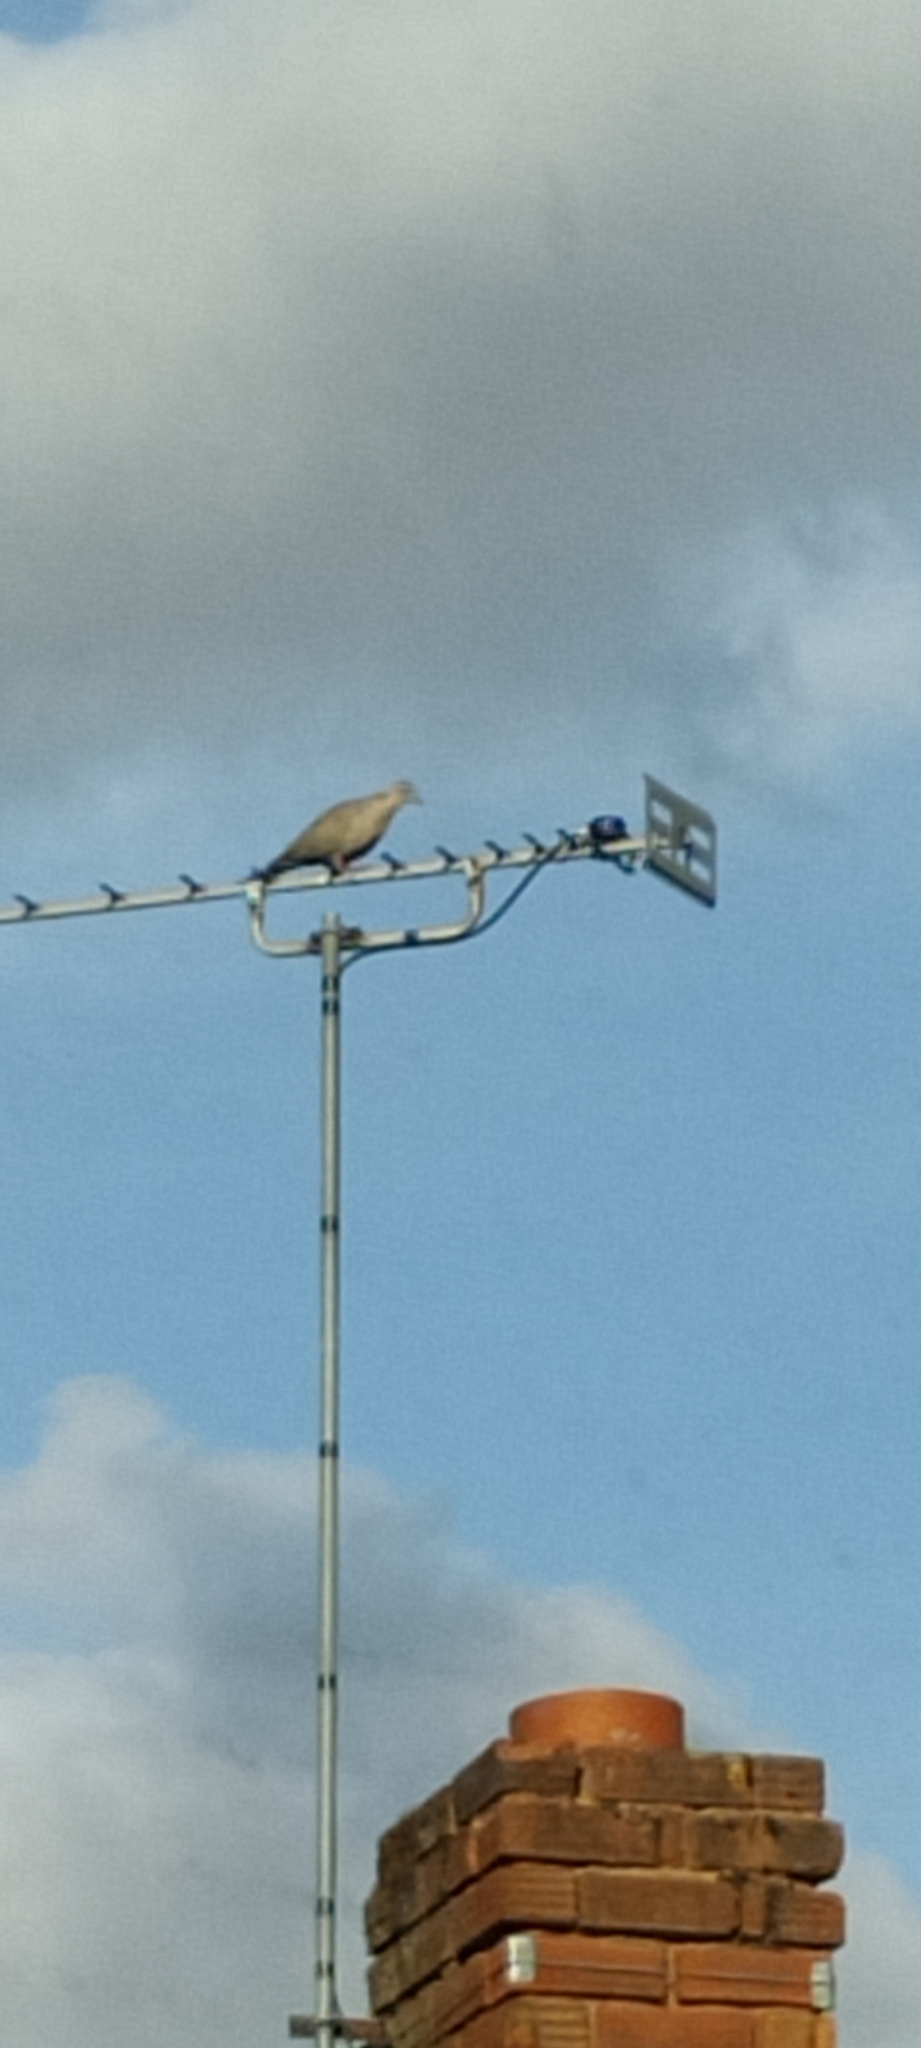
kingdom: Animalia
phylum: Chordata
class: Aves
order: Columbiformes
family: Columbidae
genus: Streptopelia
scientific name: Streptopelia decaocto
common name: Eurasian collared dove
